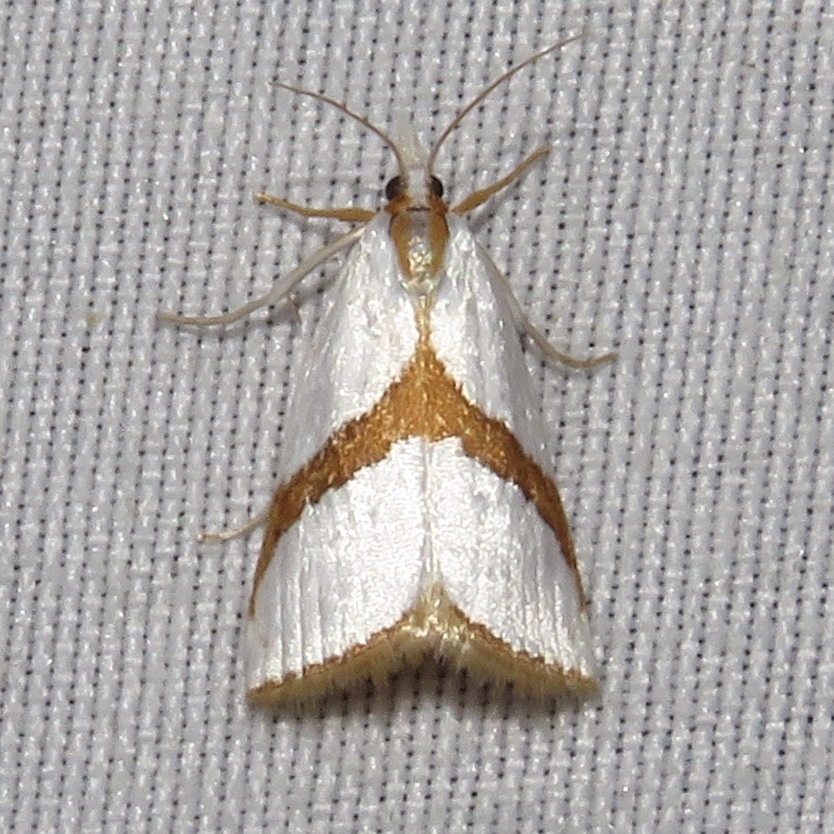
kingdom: Animalia
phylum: Arthropoda
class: Insecta
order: Lepidoptera
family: Crambidae
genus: Vaxi
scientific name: Vaxi critica
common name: Straight-lined vaxi moth
